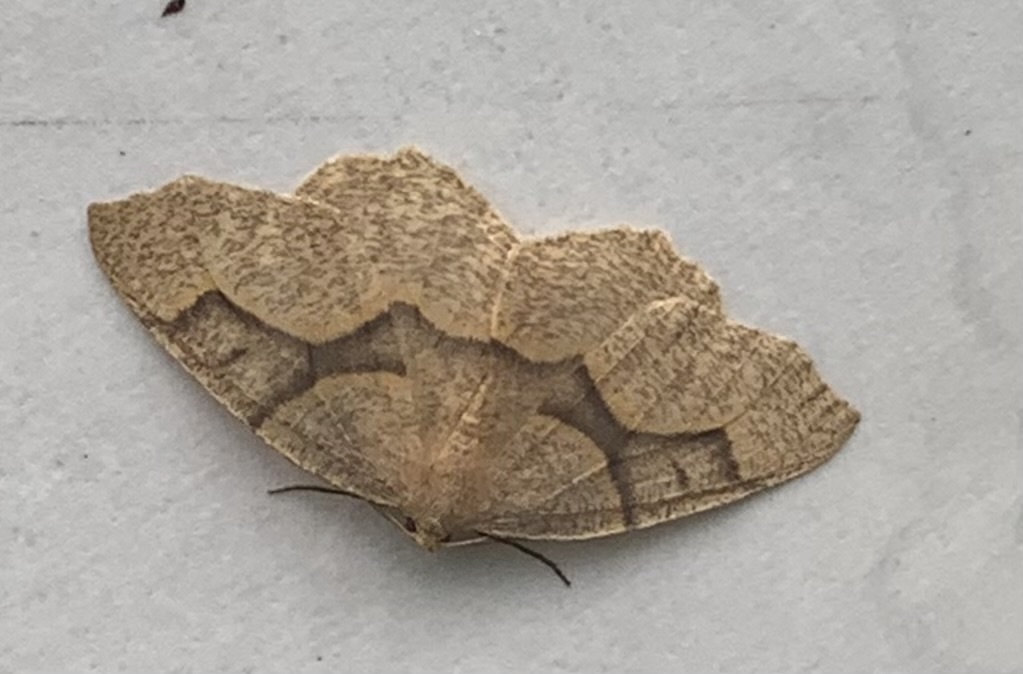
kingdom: Animalia
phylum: Arthropoda
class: Insecta
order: Lepidoptera
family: Geometridae
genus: Lambdina
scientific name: Lambdina fiscellaria
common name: Hemlock looper
